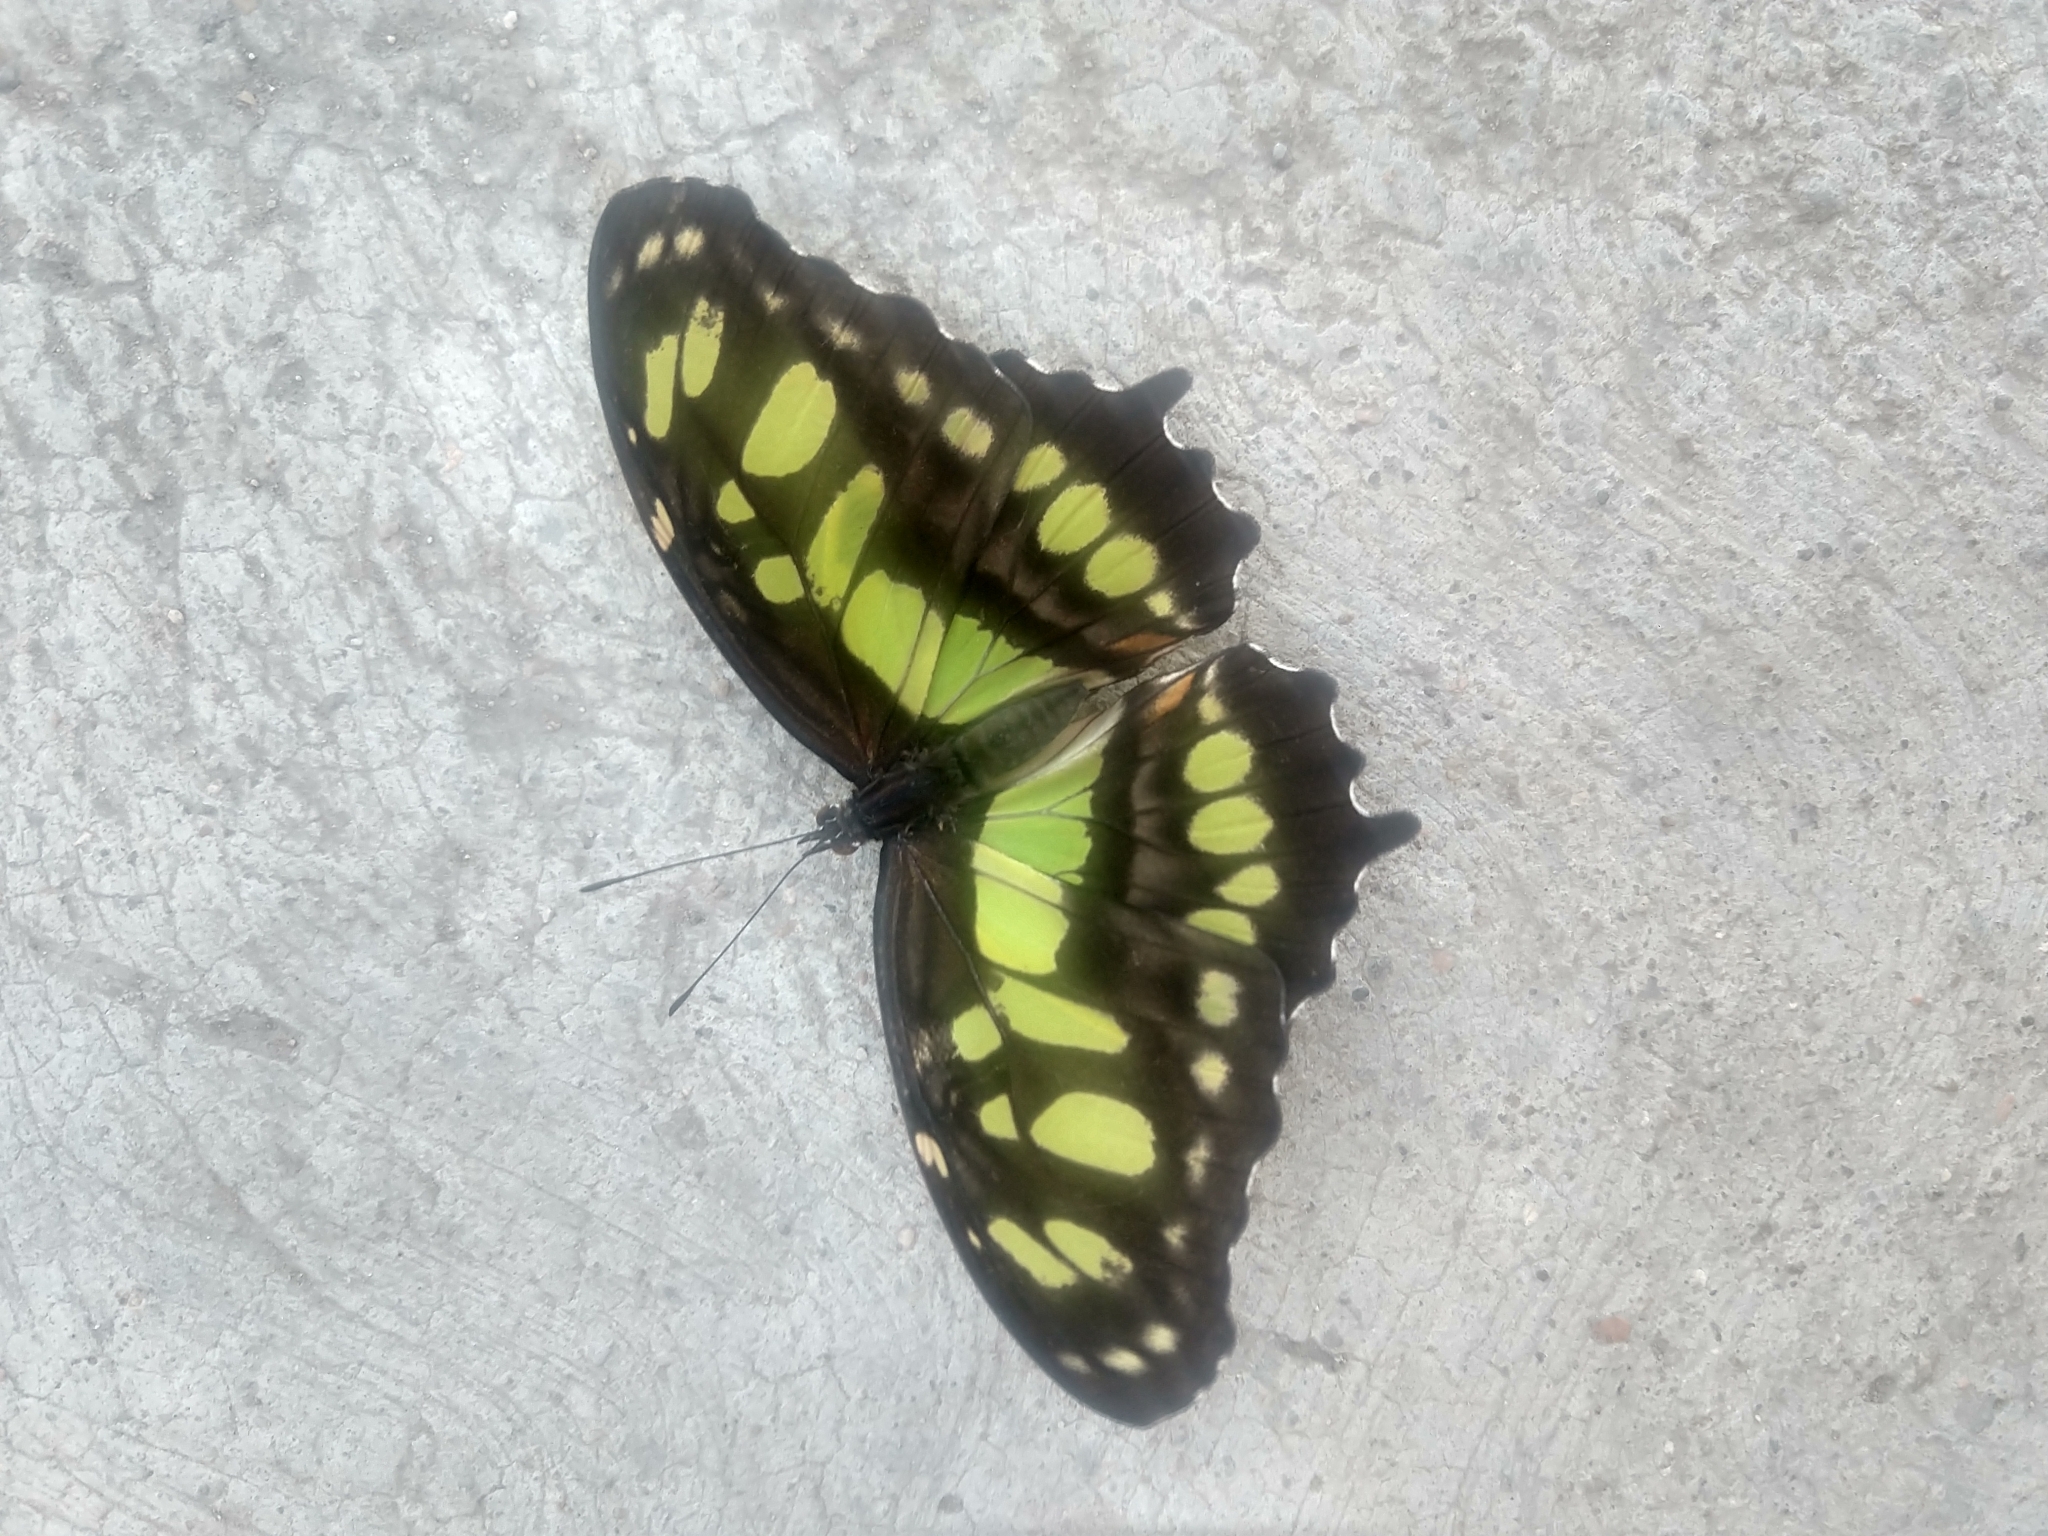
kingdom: Animalia
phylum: Arthropoda
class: Insecta
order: Lepidoptera
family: Nymphalidae
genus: Siproeta
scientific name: Siproeta stelenes
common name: Malachite
